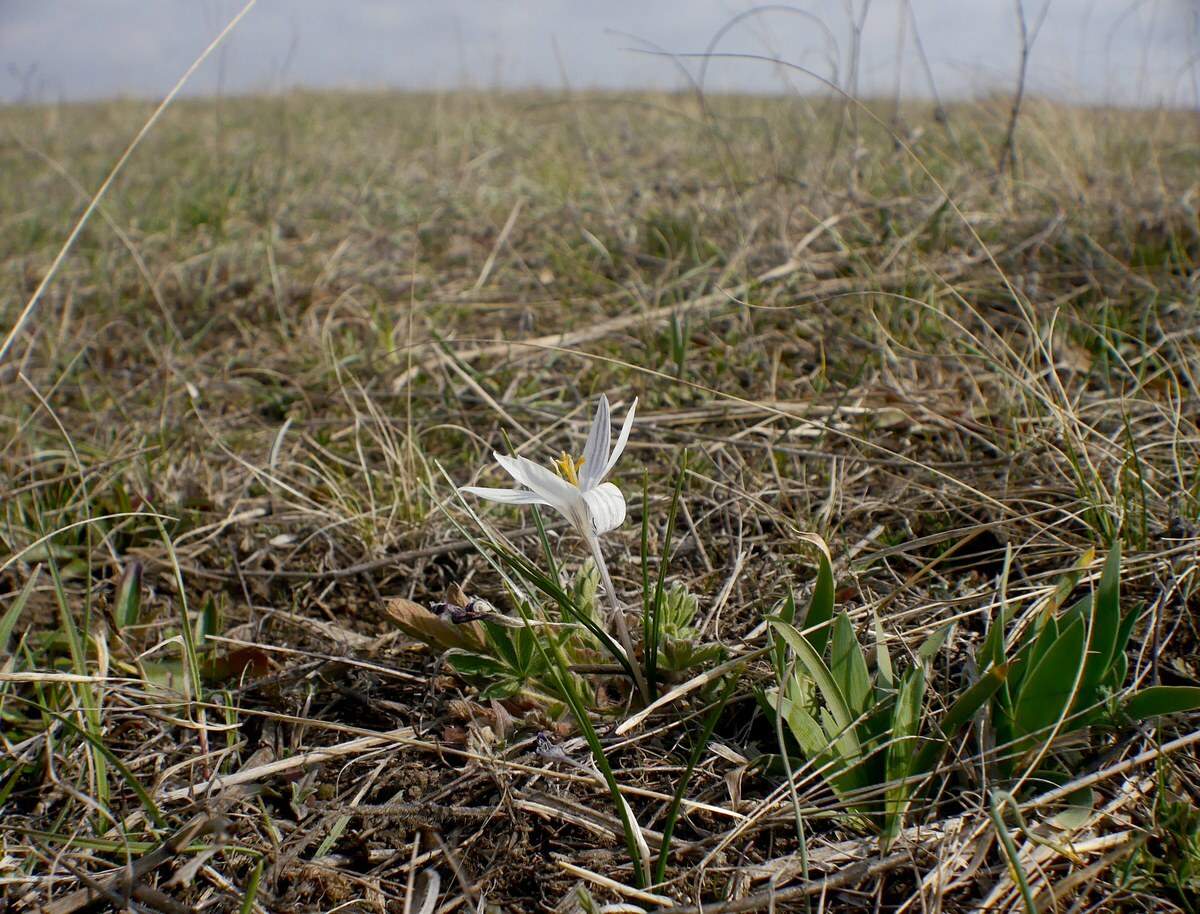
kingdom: Plantae
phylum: Tracheophyta
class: Liliopsida
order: Asparagales
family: Iridaceae
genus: Crocus
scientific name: Crocus reticulatus
